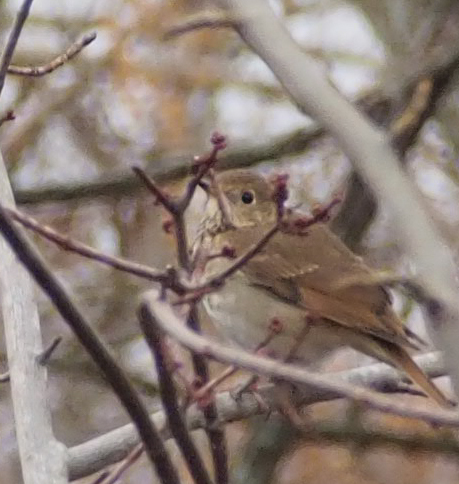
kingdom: Animalia
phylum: Chordata
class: Aves
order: Passeriformes
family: Turdidae
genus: Catharus
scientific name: Catharus guttatus
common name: Hermit thrush
